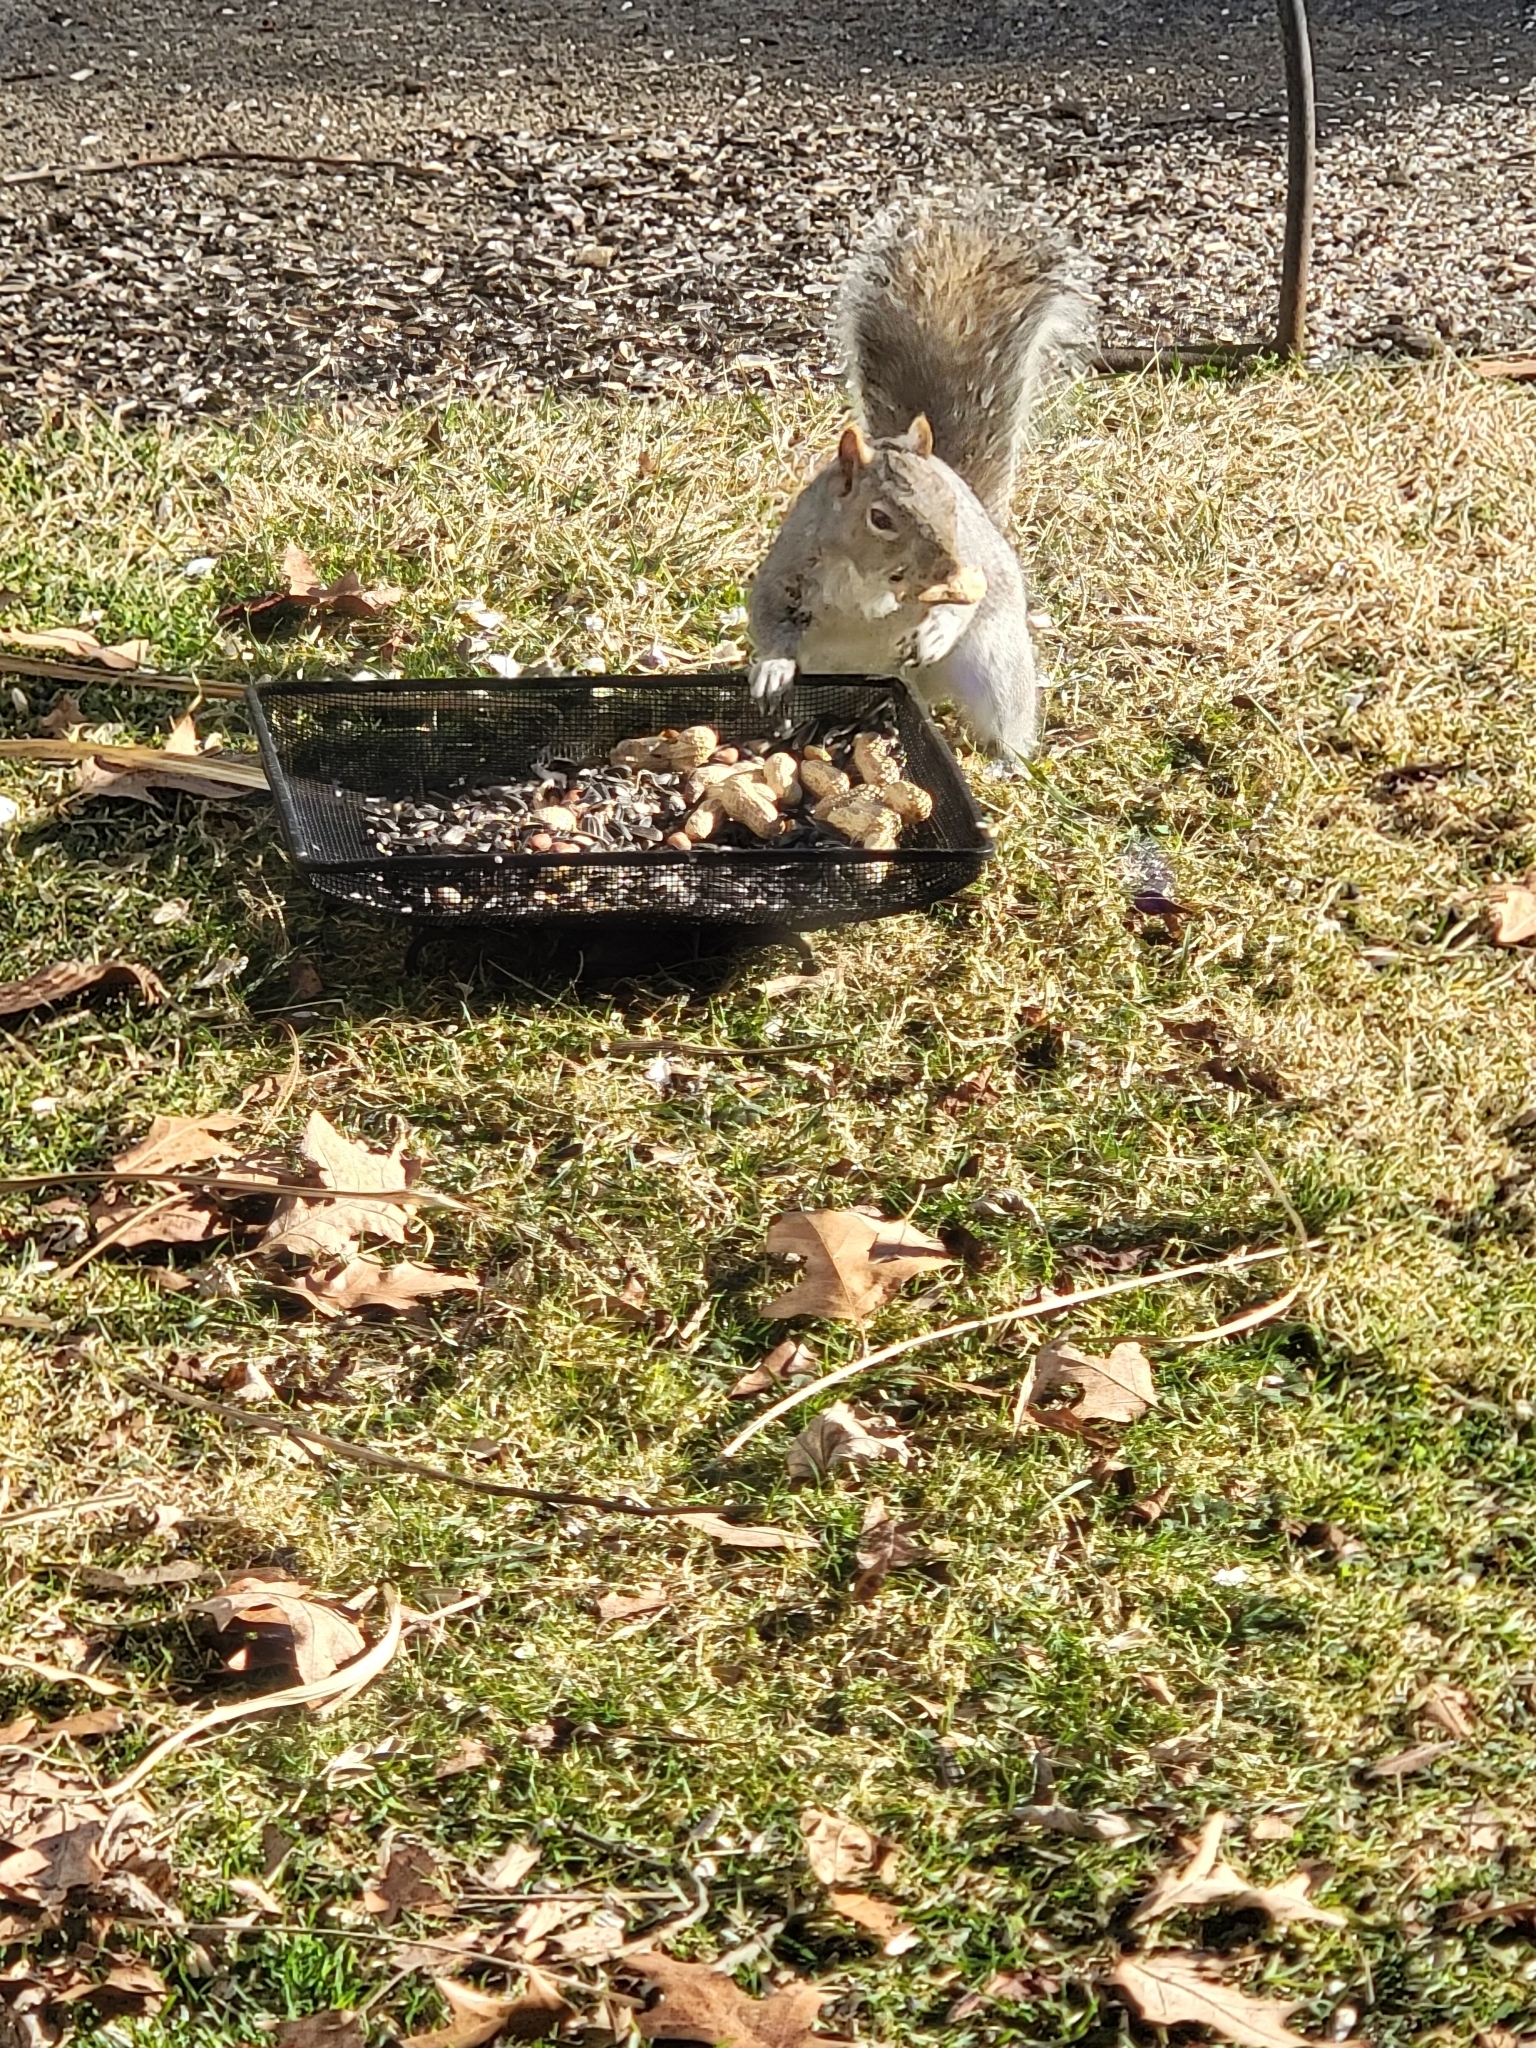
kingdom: Animalia
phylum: Chordata
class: Mammalia
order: Rodentia
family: Sciuridae
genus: Sciurus
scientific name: Sciurus carolinensis
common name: Eastern gray squirrel
